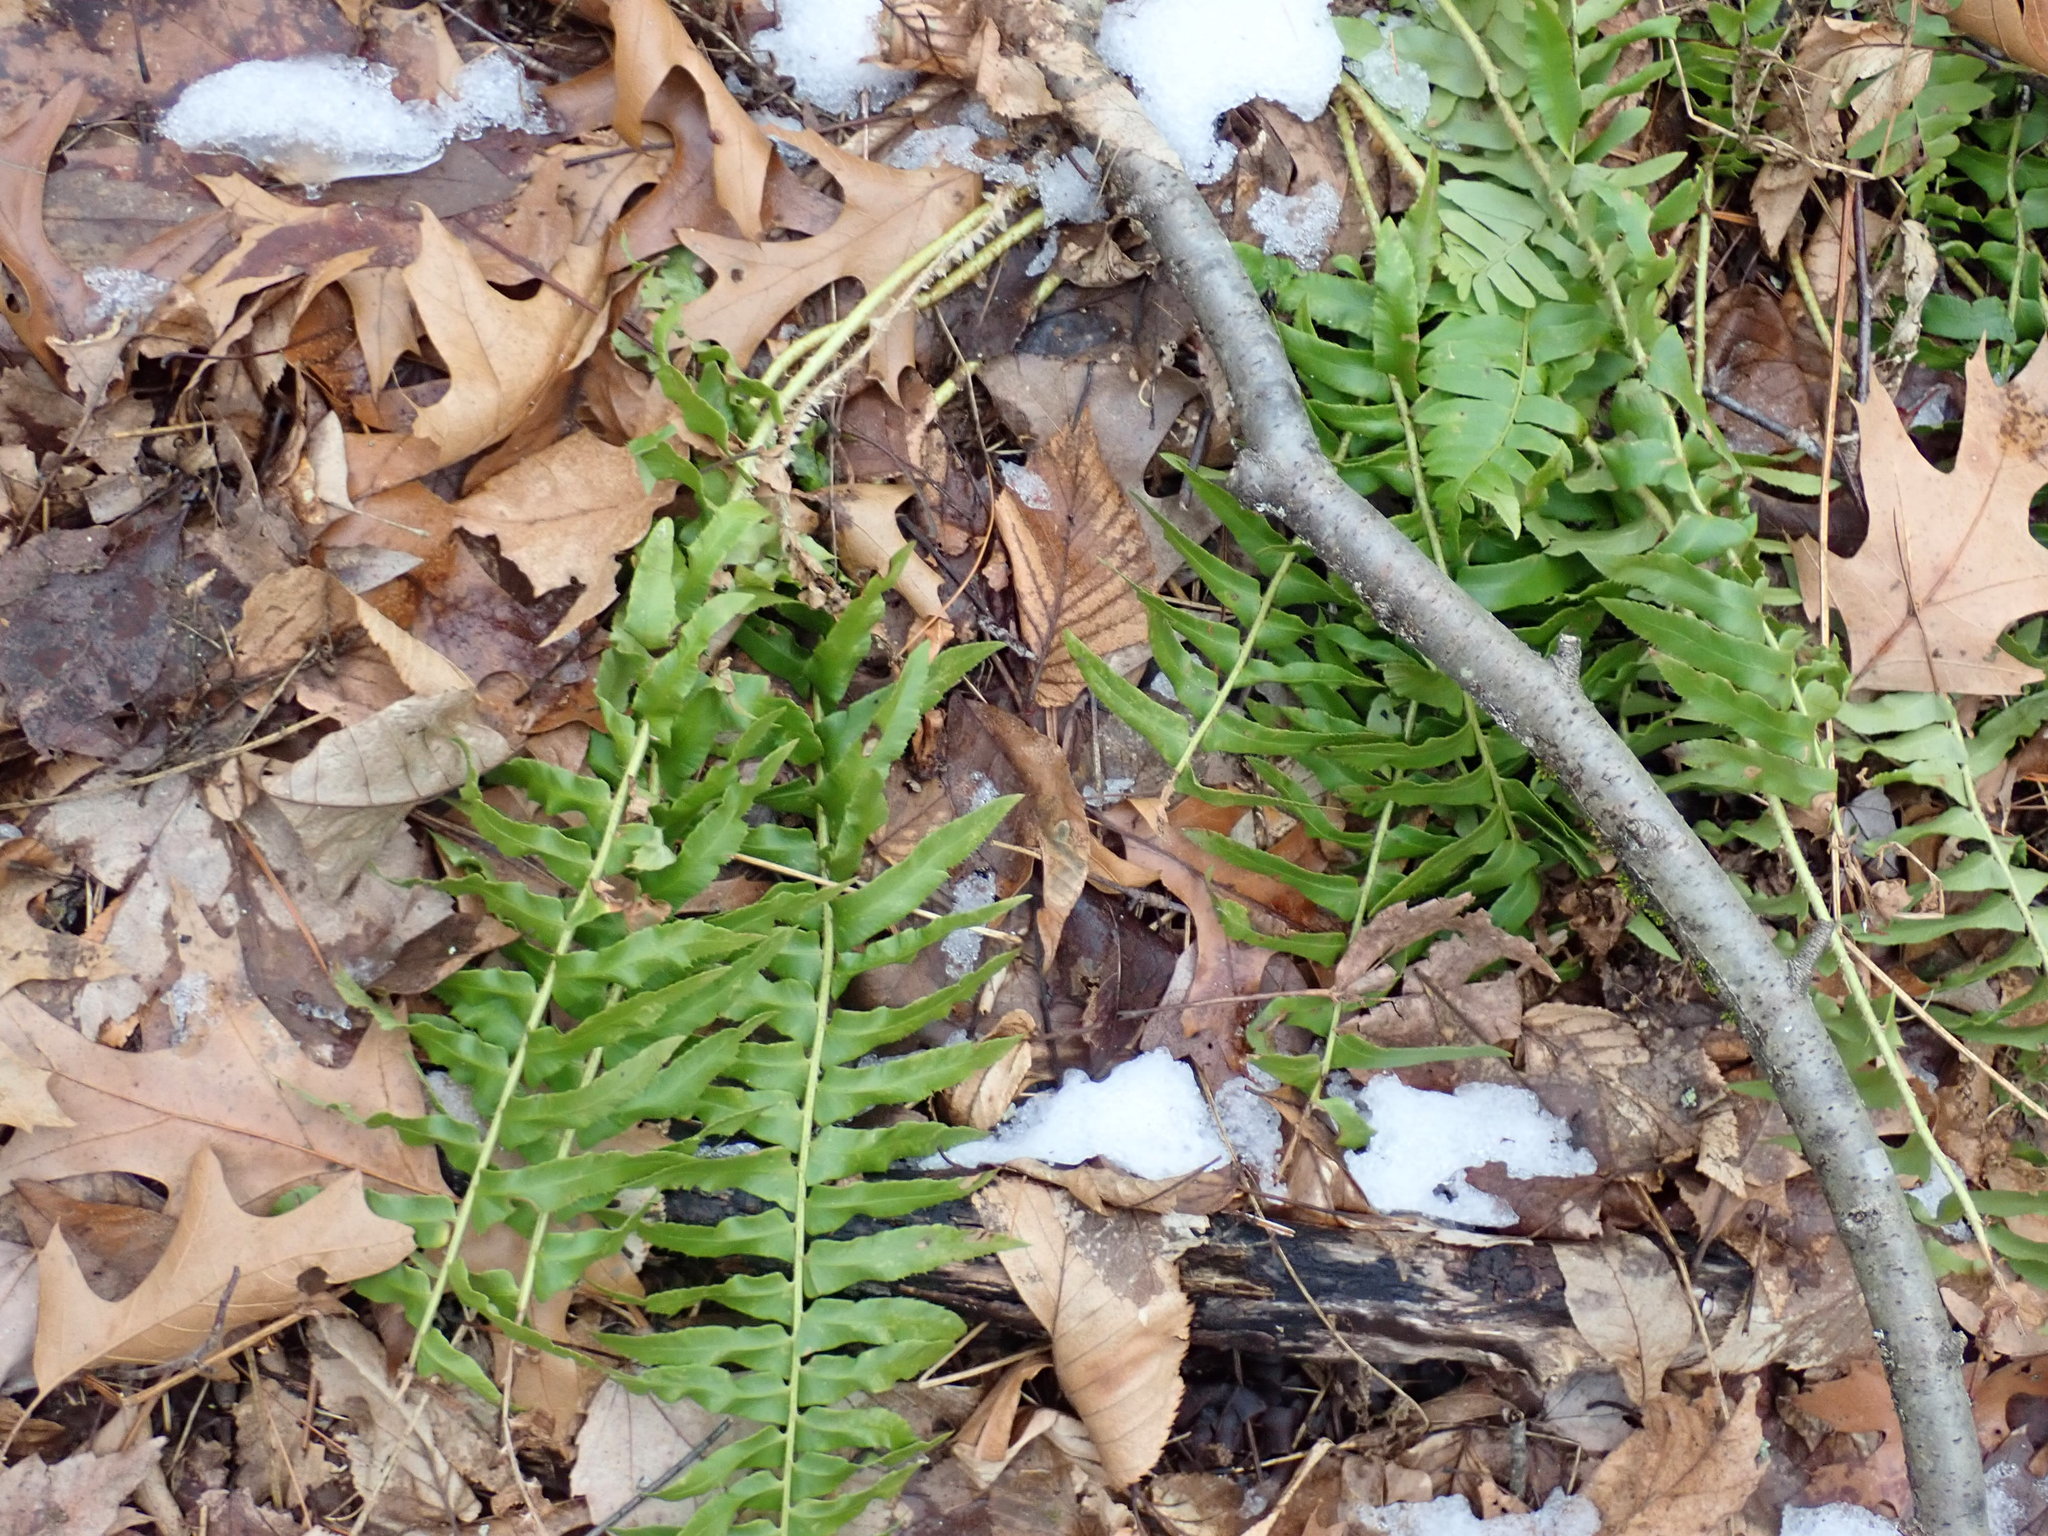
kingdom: Plantae
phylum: Tracheophyta
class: Polypodiopsida
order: Polypodiales
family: Dryopteridaceae
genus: Polystichum
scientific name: Polystichum acrostichoides
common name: Christmas fern
